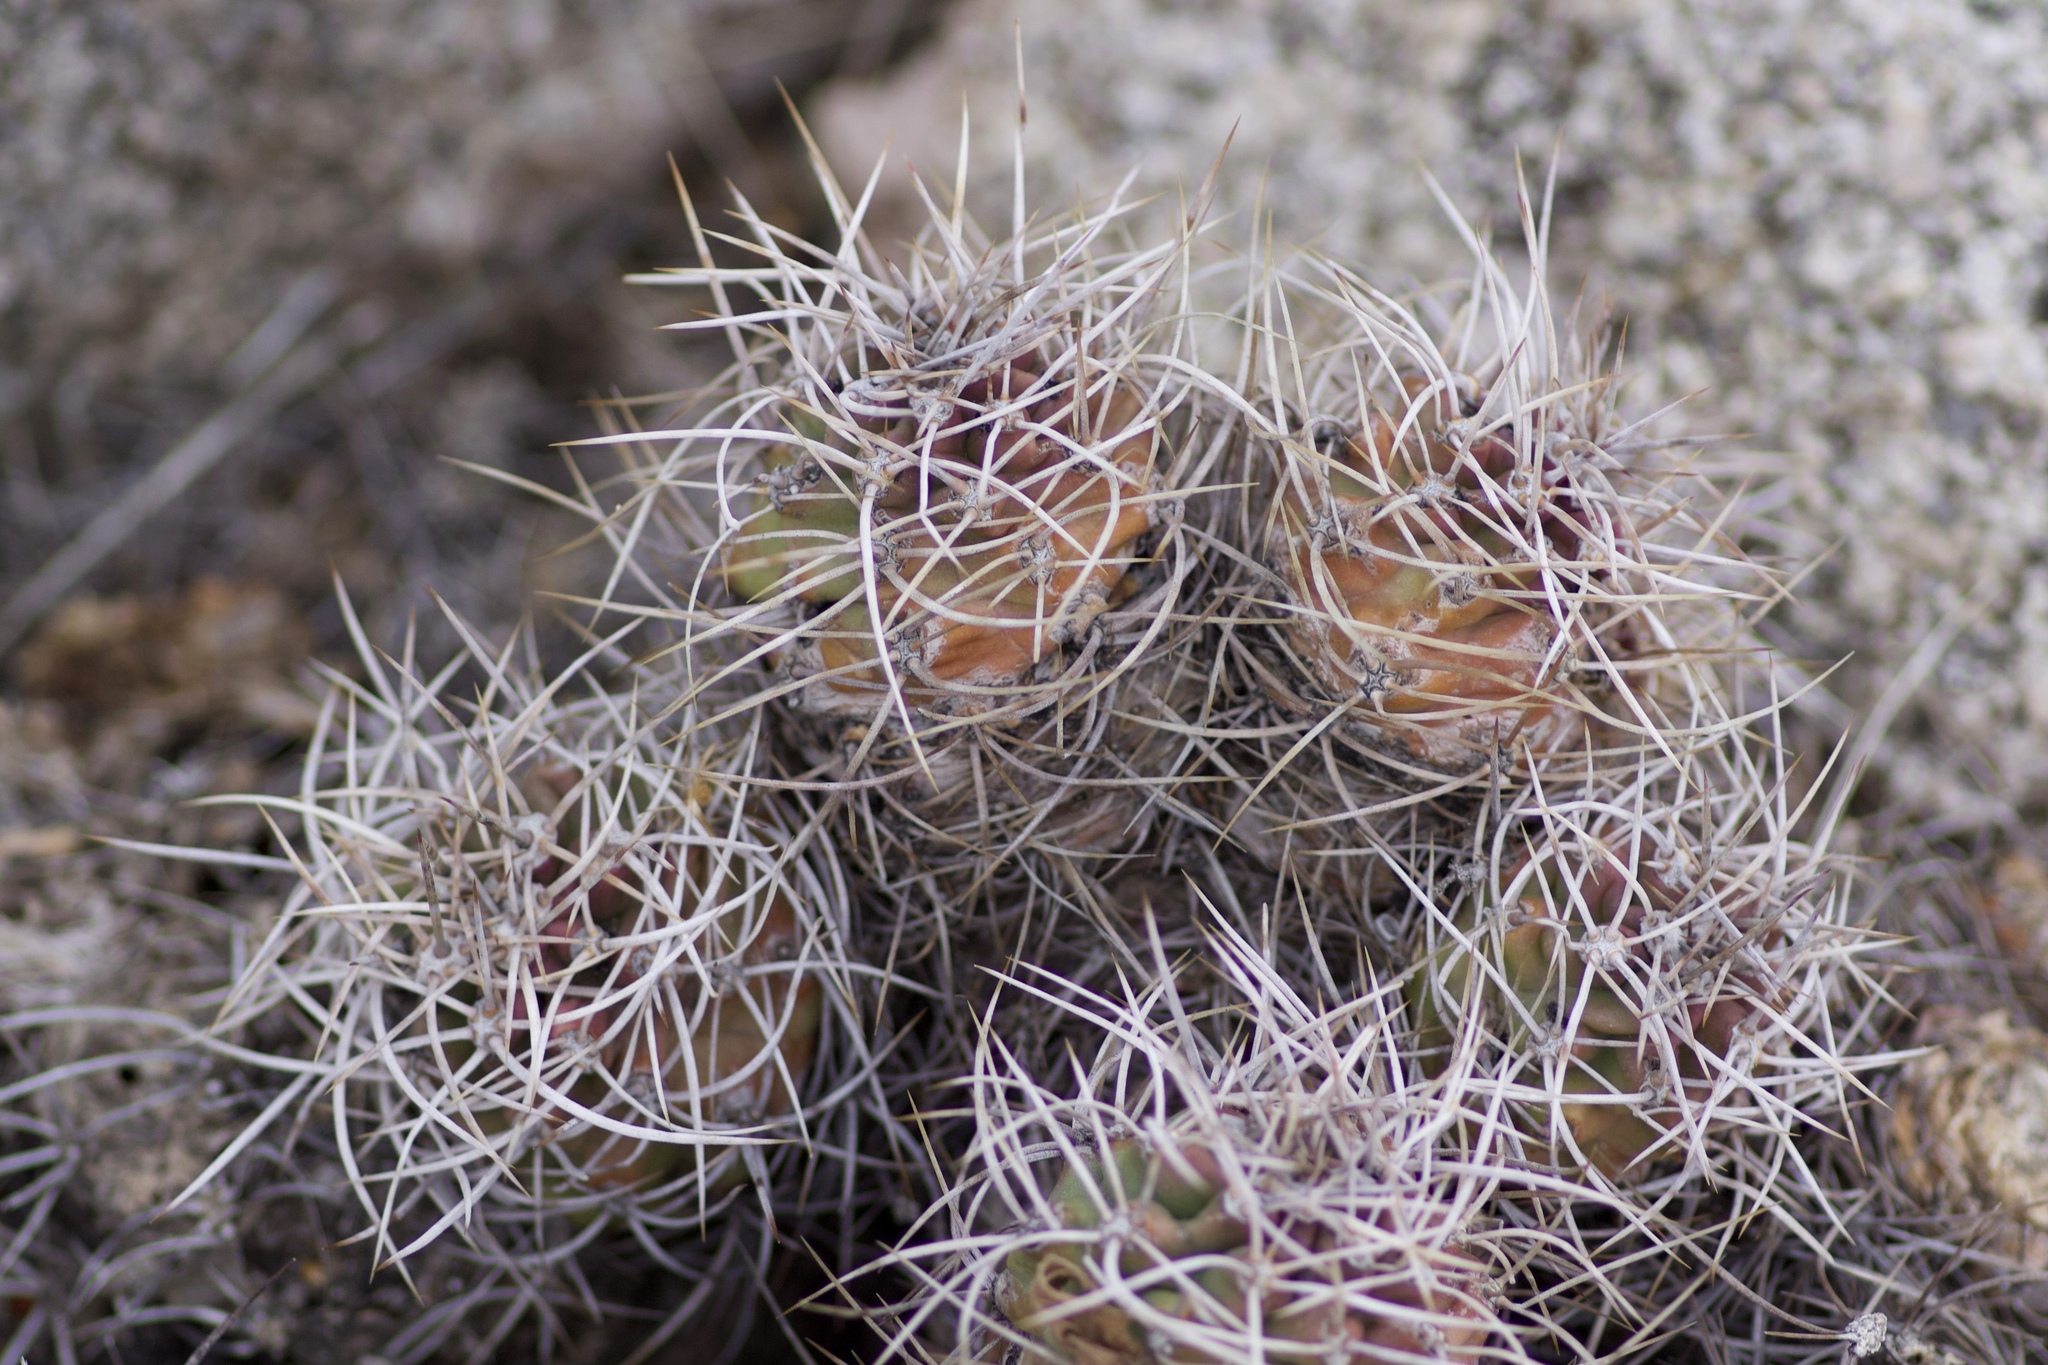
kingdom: Plantae
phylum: Tracheophyta
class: Magnoliopsida
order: Caryophyllales
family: Cactaceae
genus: Echinocereus
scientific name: Echinocereus triglochidiatus
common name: Claretcup hedgehog
